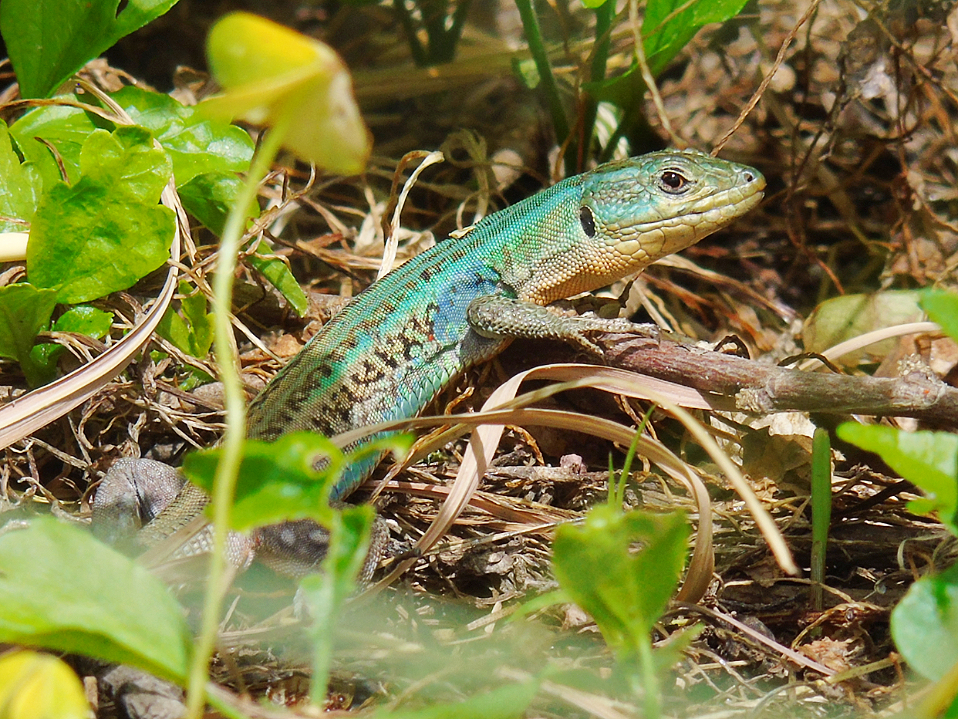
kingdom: Animalia
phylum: Chordata
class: Squamata
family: Lacertidae
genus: Podarcis
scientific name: Podarcis peloponnesiacus
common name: Peloponnese wall lizard
